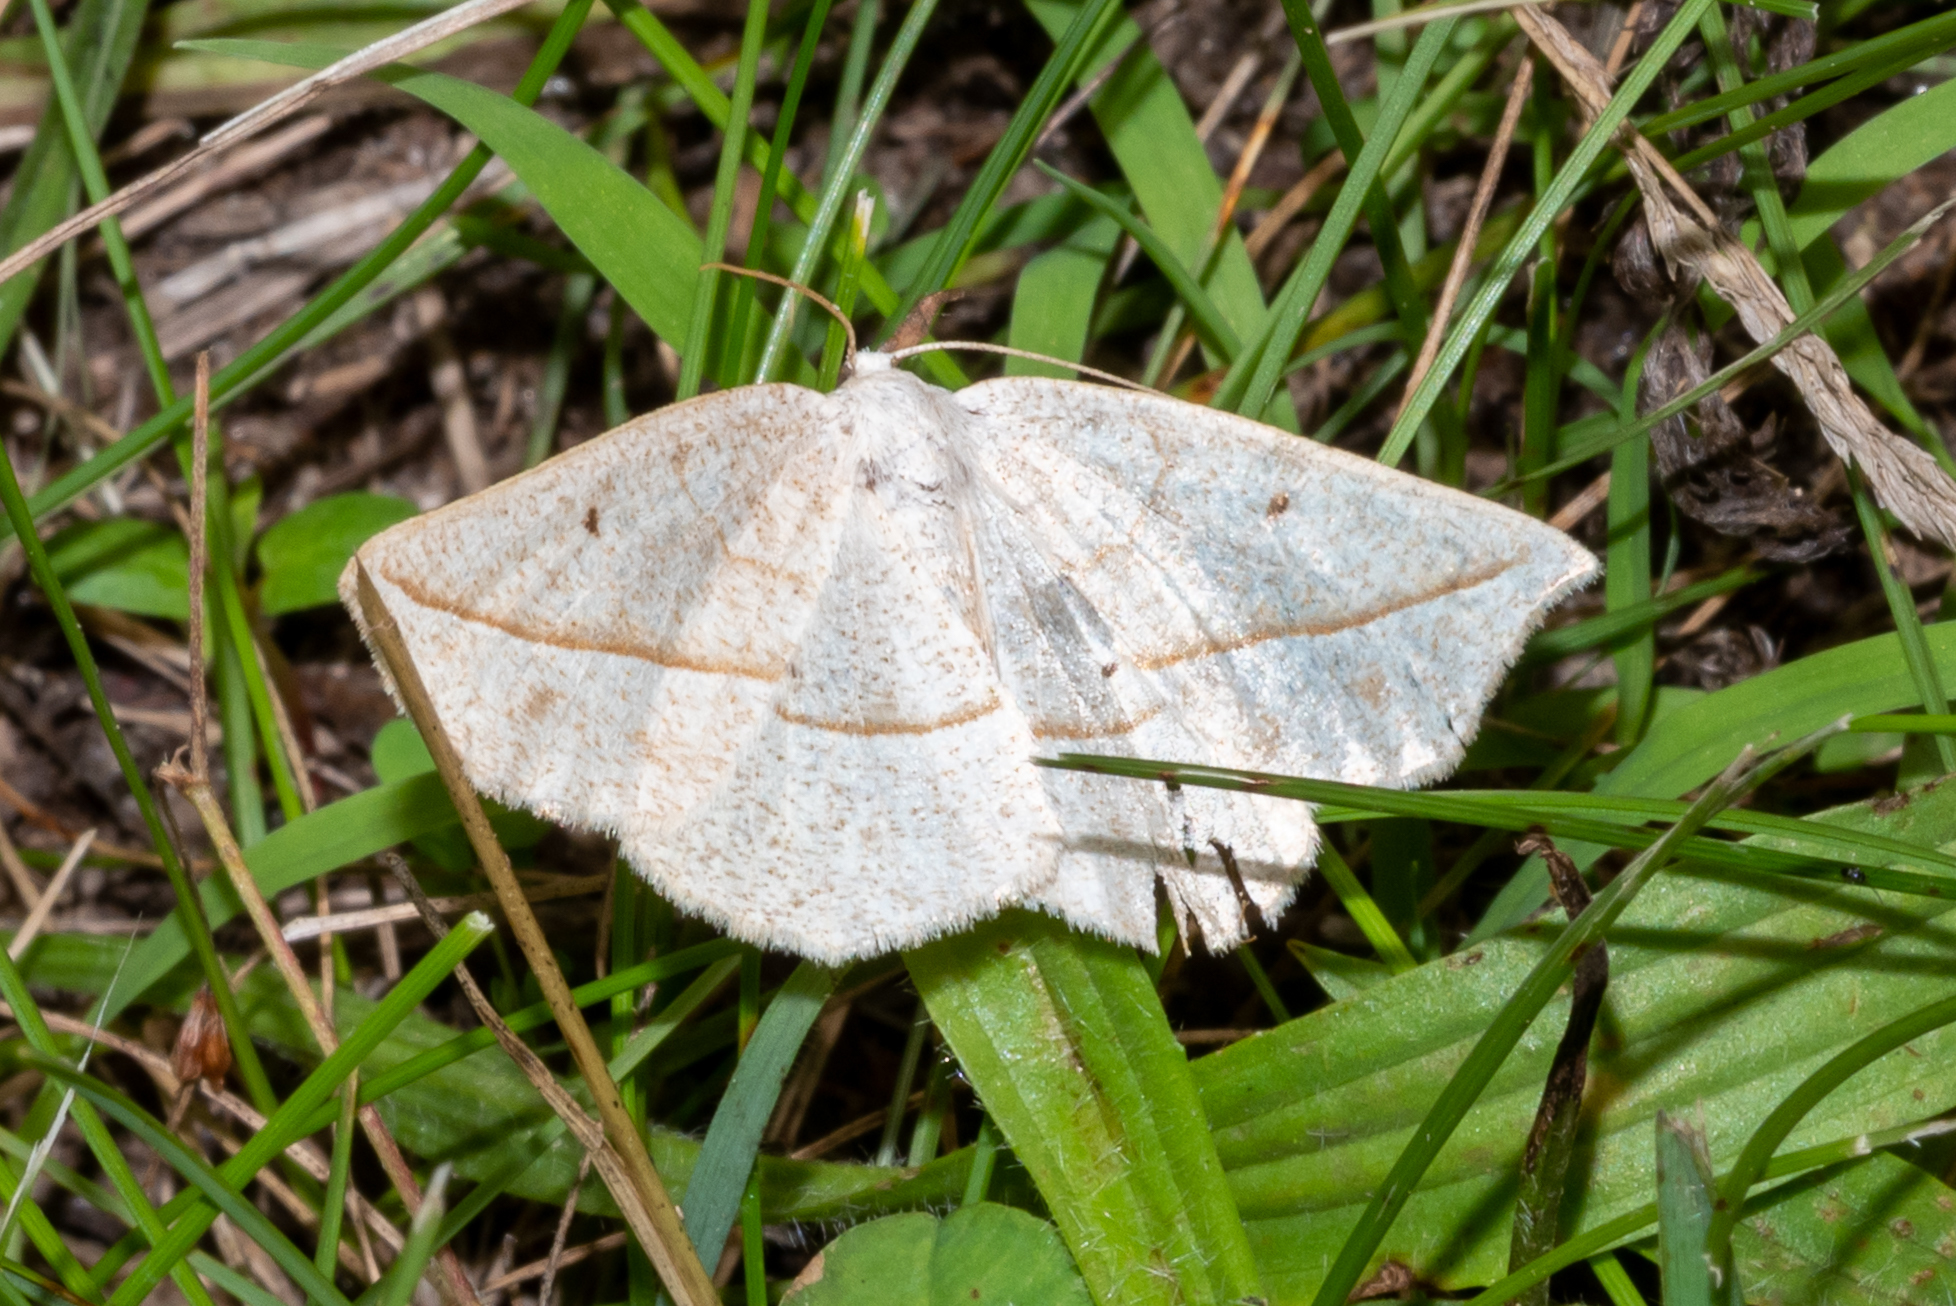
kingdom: Animalia
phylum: Arthropoda
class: Insecta
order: Lepidoptera
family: Geometridae
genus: Eusarca
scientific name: Eusarca confusaria
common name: Confused eusarca
